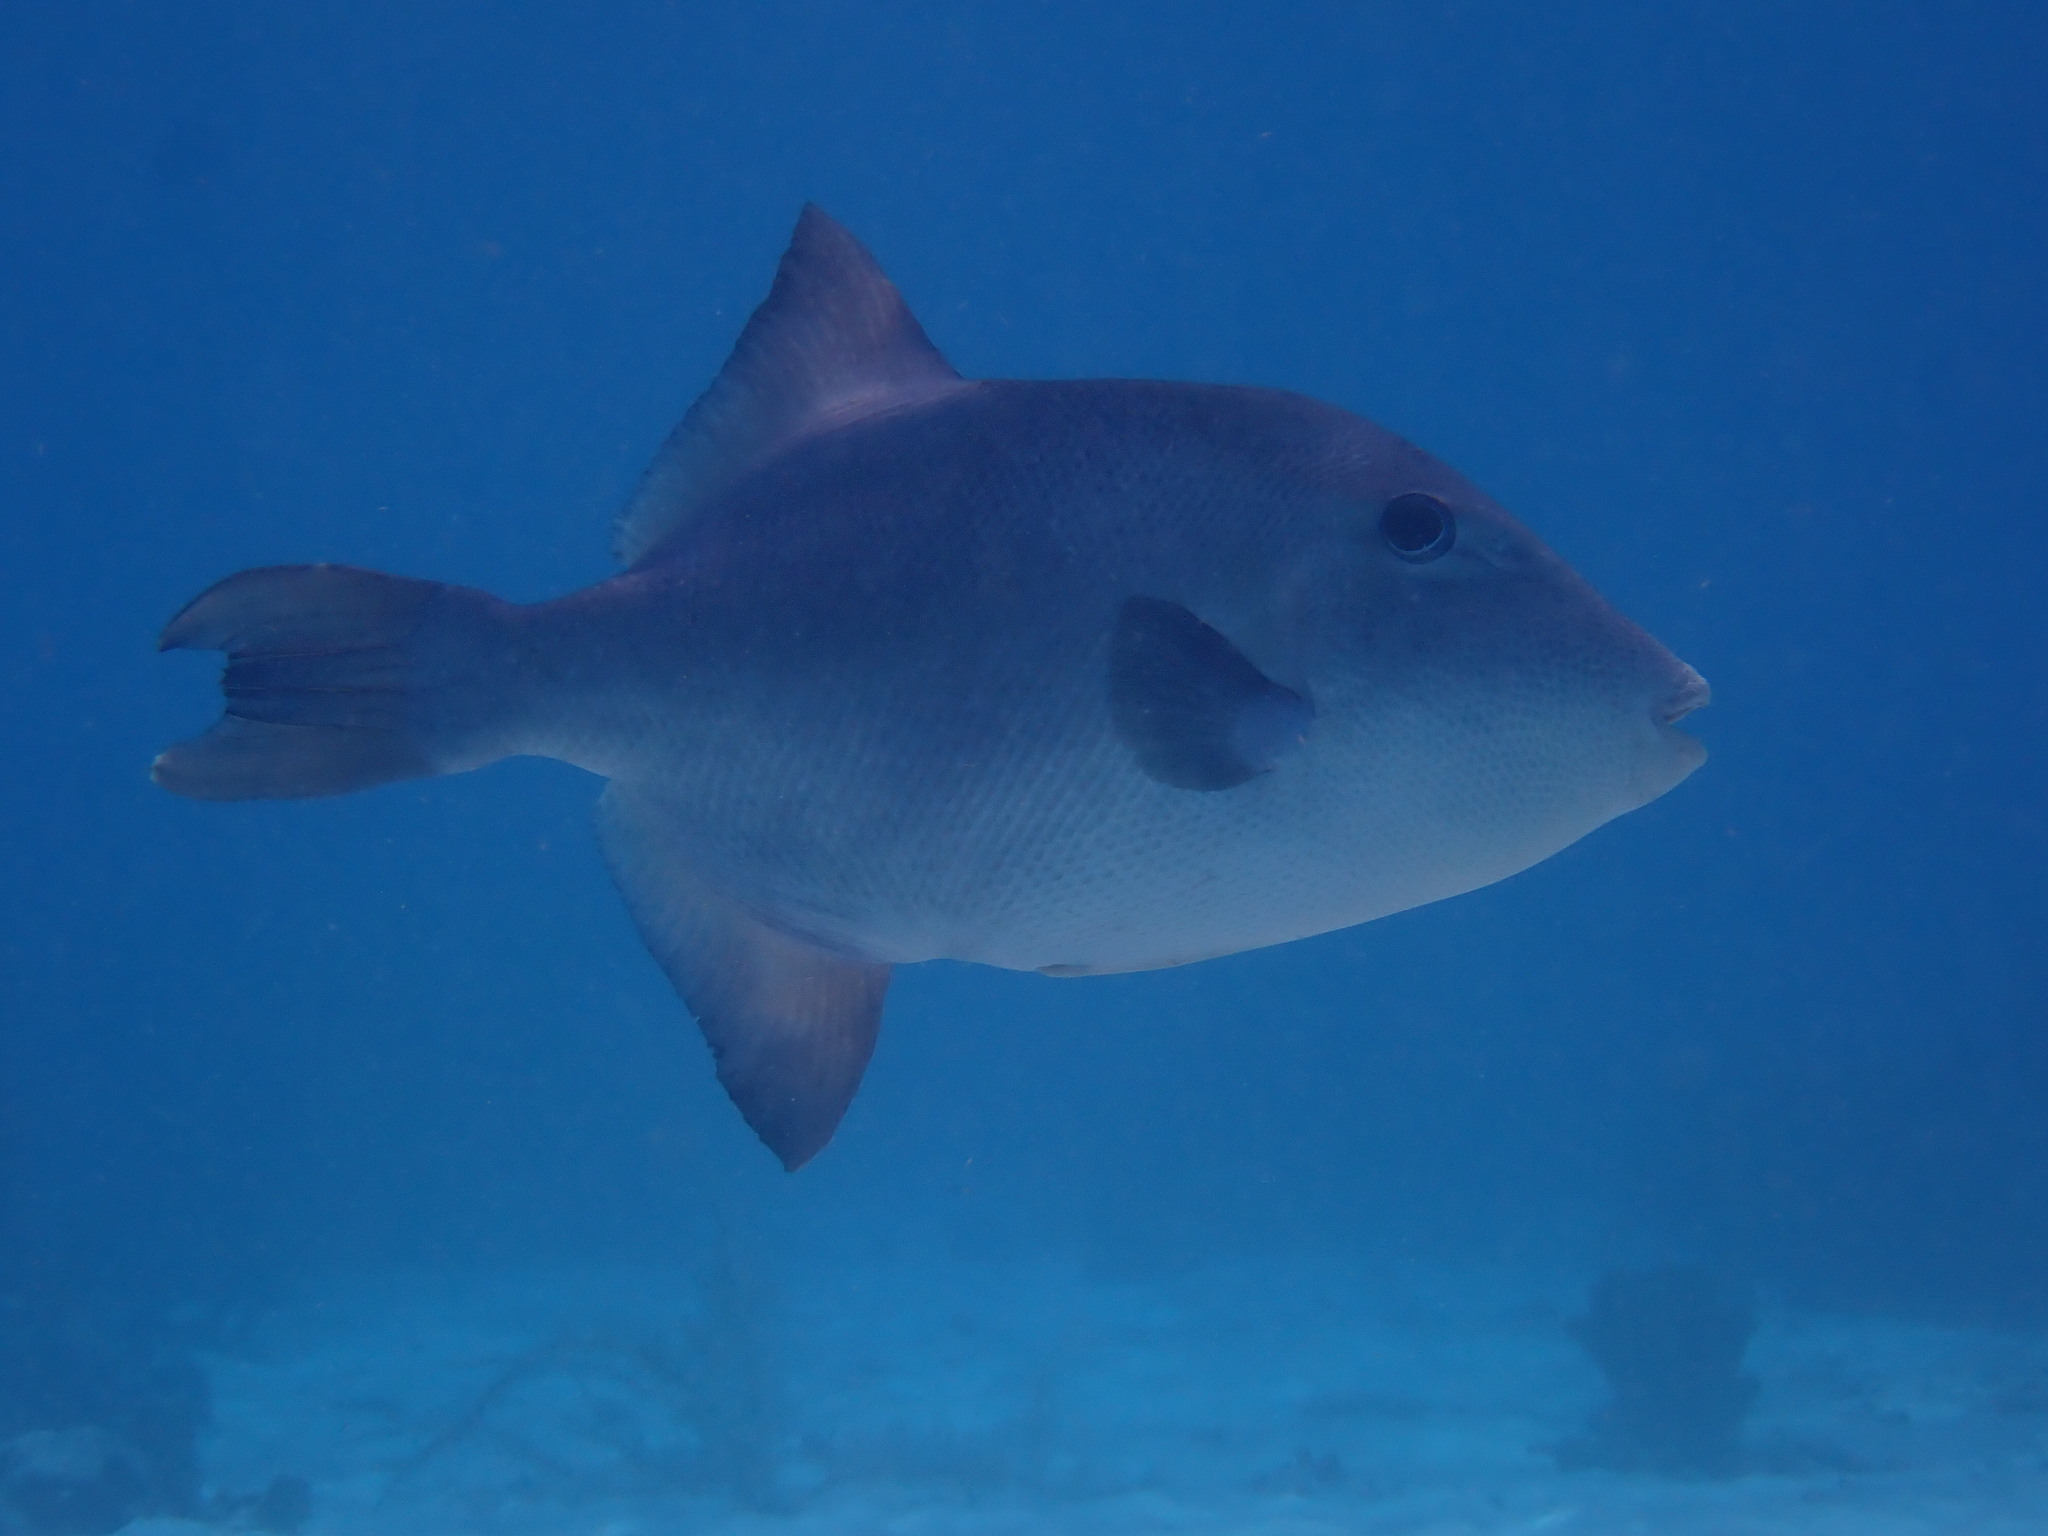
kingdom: Animalia
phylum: Chordata
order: Tetraodontiformes
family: Balistidae
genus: Canthidermis
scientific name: Canthidermis sufflamen
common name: Ocean triggerfish
